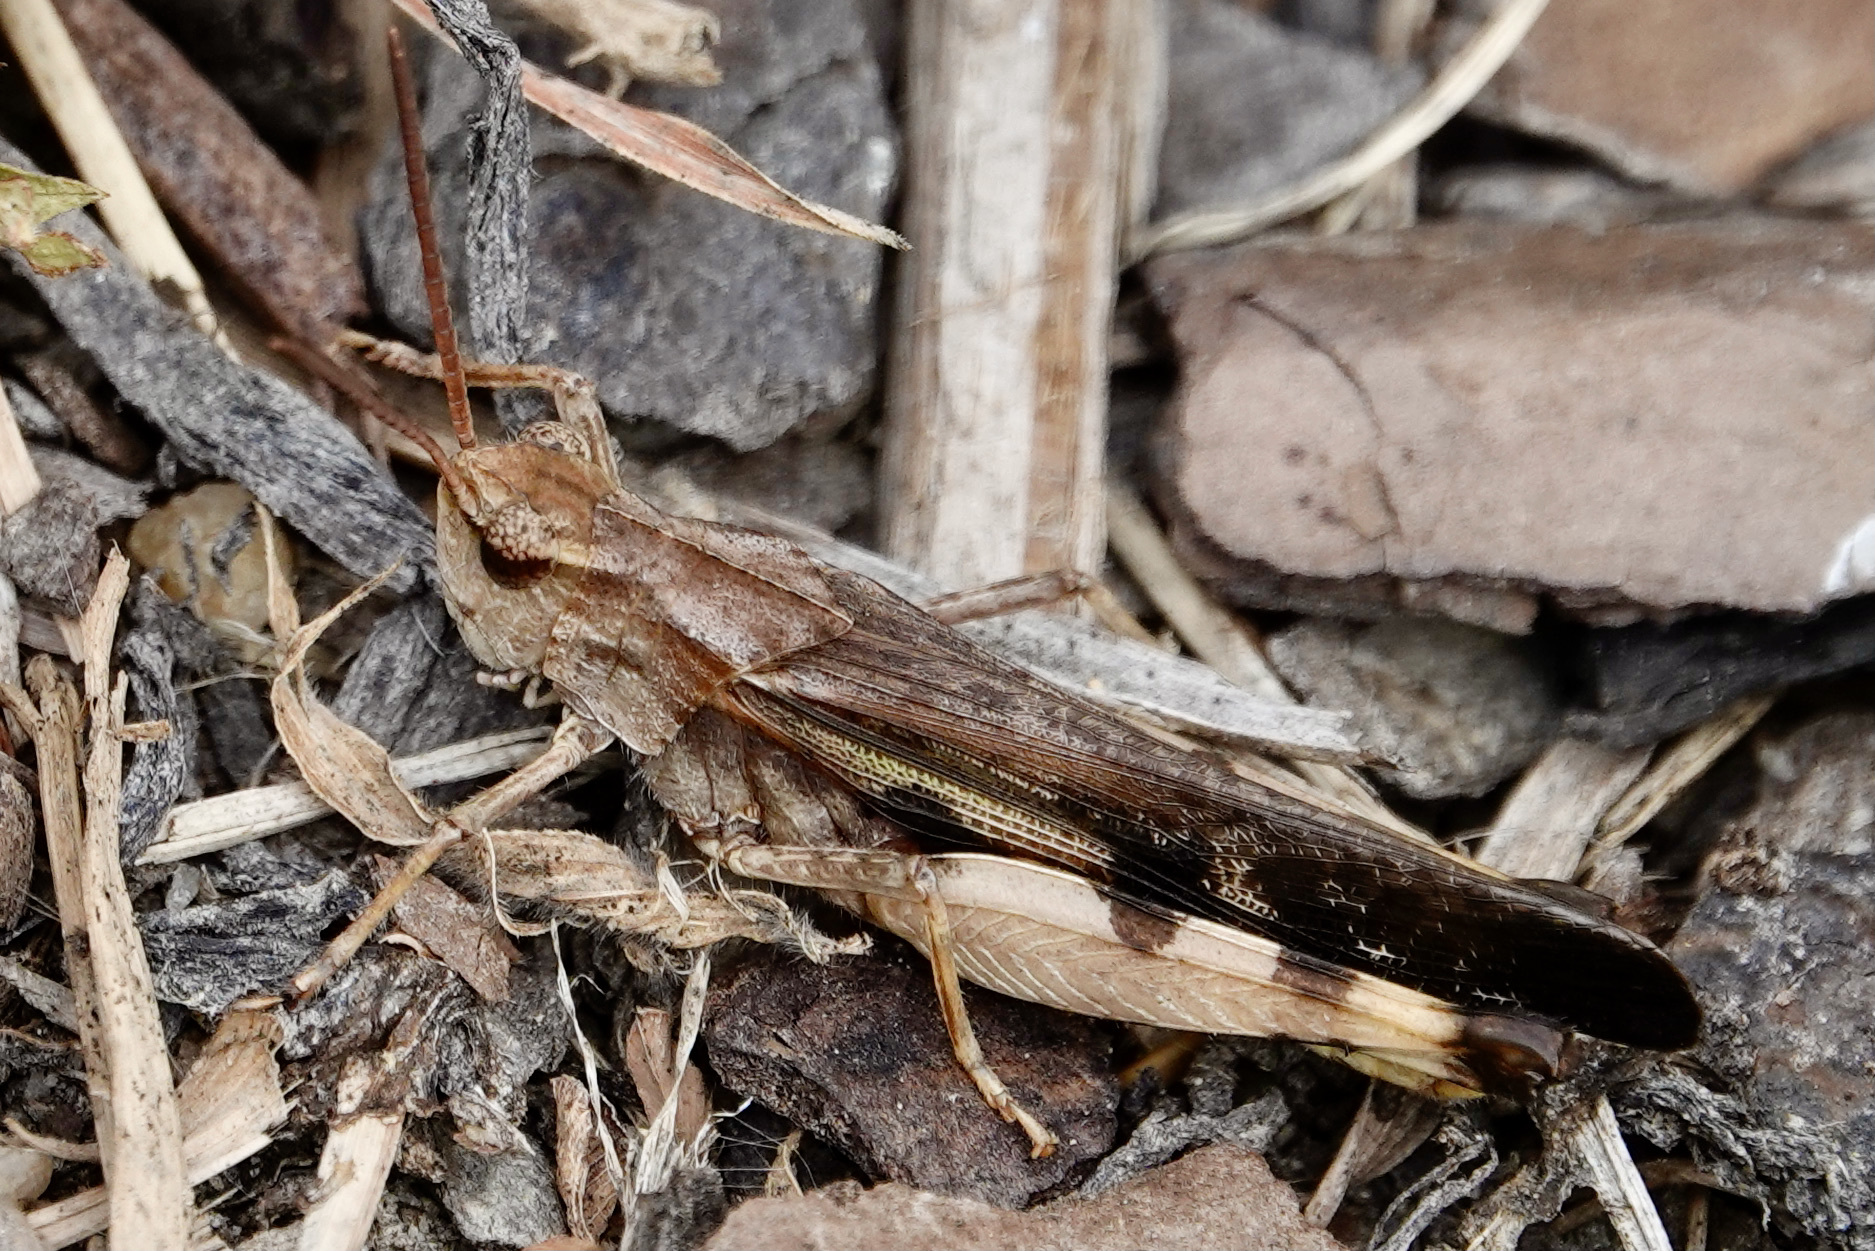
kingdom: Animalia
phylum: Arthropoda
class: Insecta
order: Orthoptera
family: Acrididae
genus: Chortophaga
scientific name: Chortophaga viridifasciata
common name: Green-striped grasshopper
